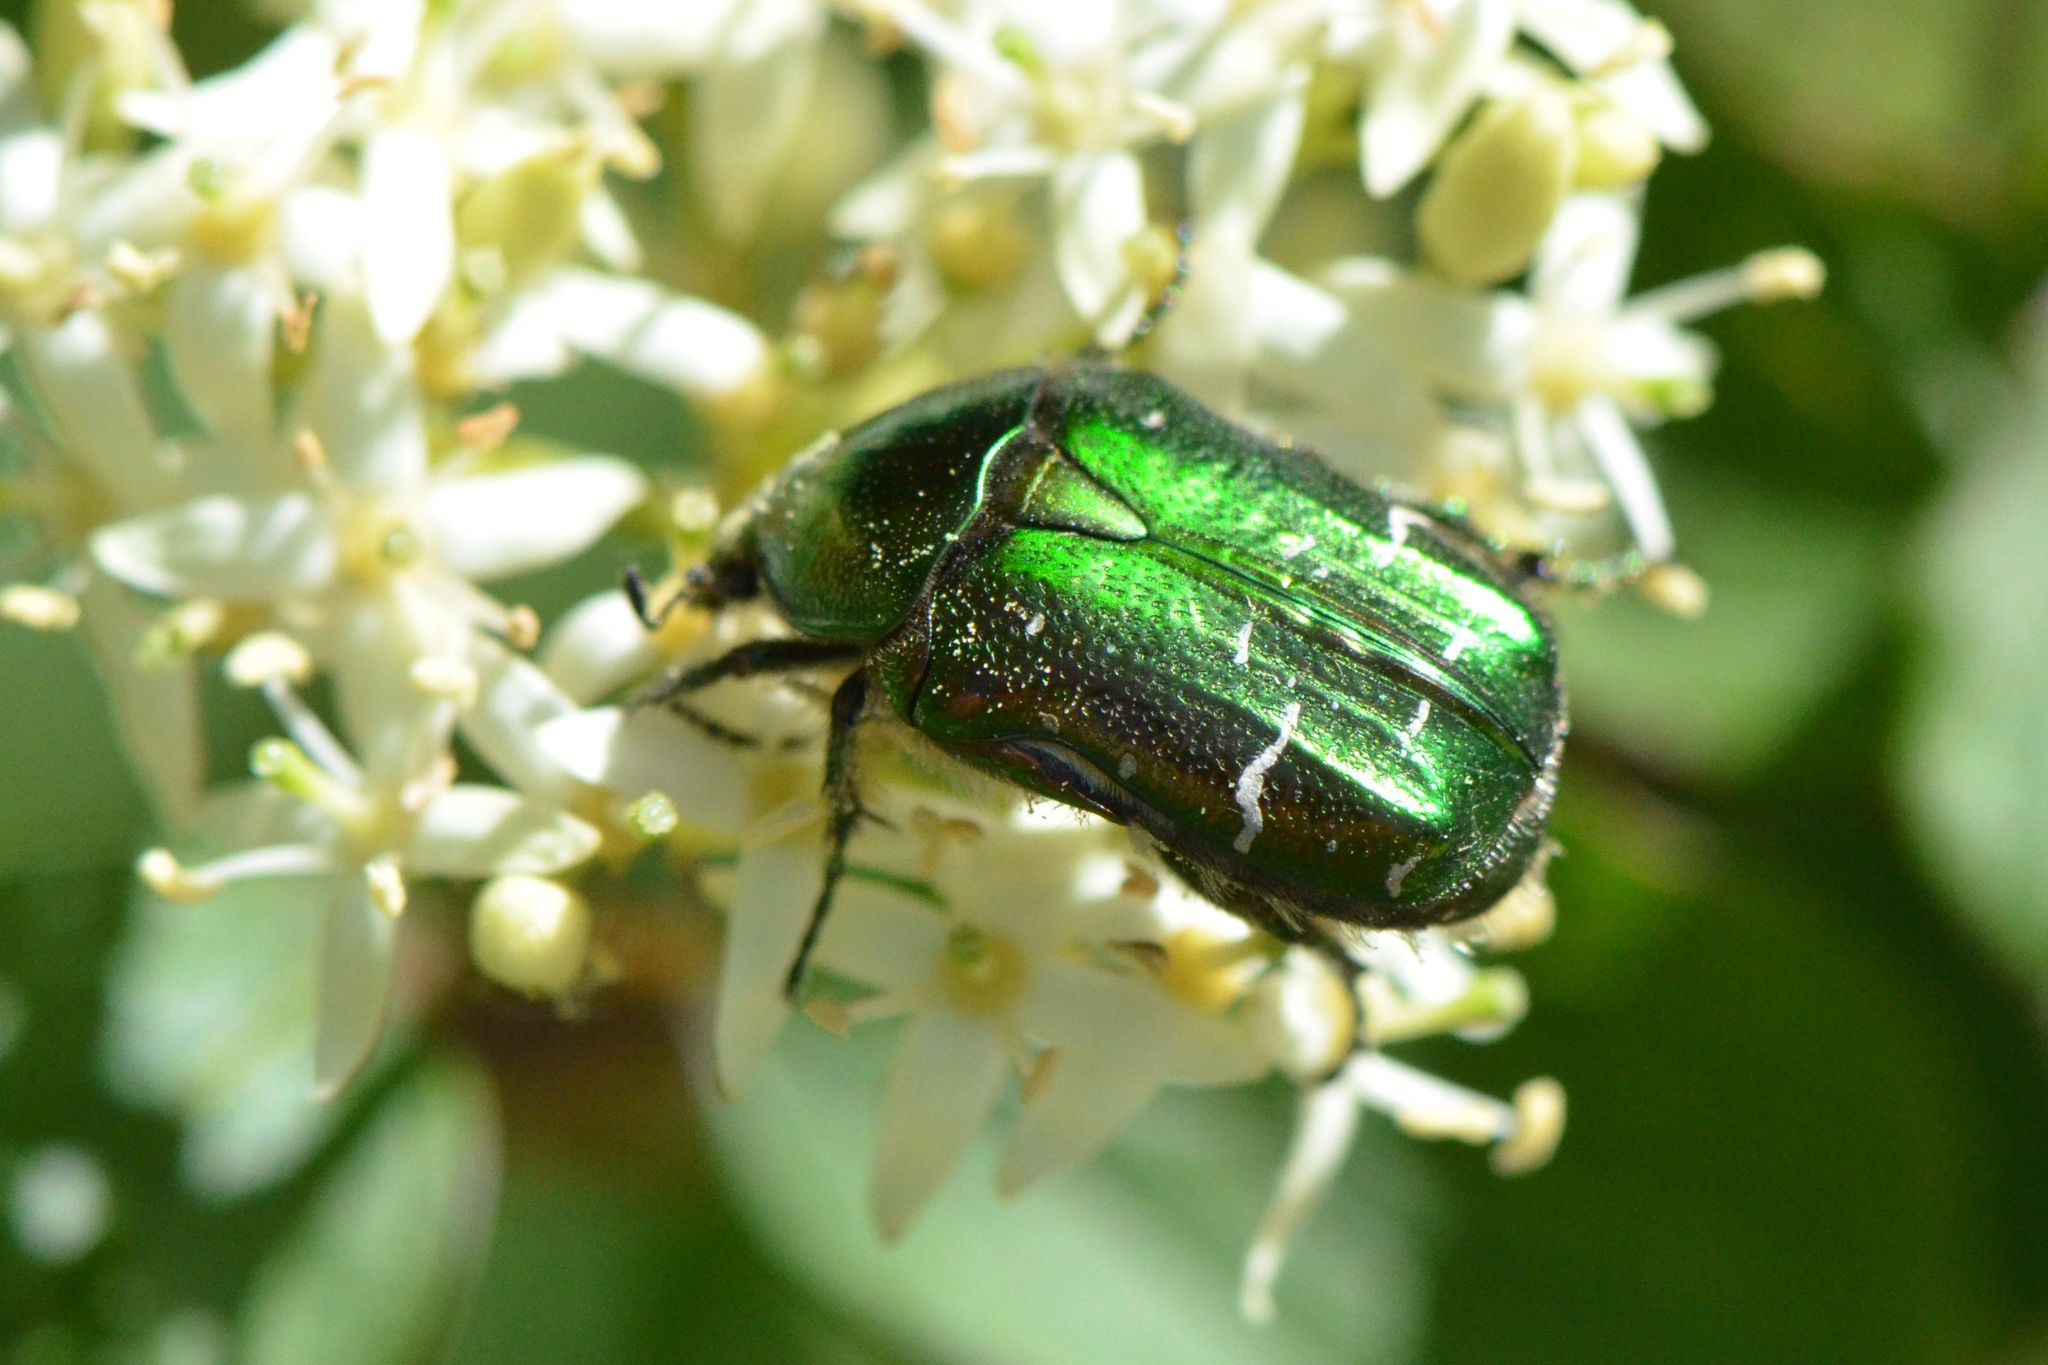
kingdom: Animalia
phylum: Arthropoda
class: Insecta
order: Coleoptera
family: Scarabaeidae
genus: Cetonia
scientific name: Cetonia aurata
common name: Rose chafer
